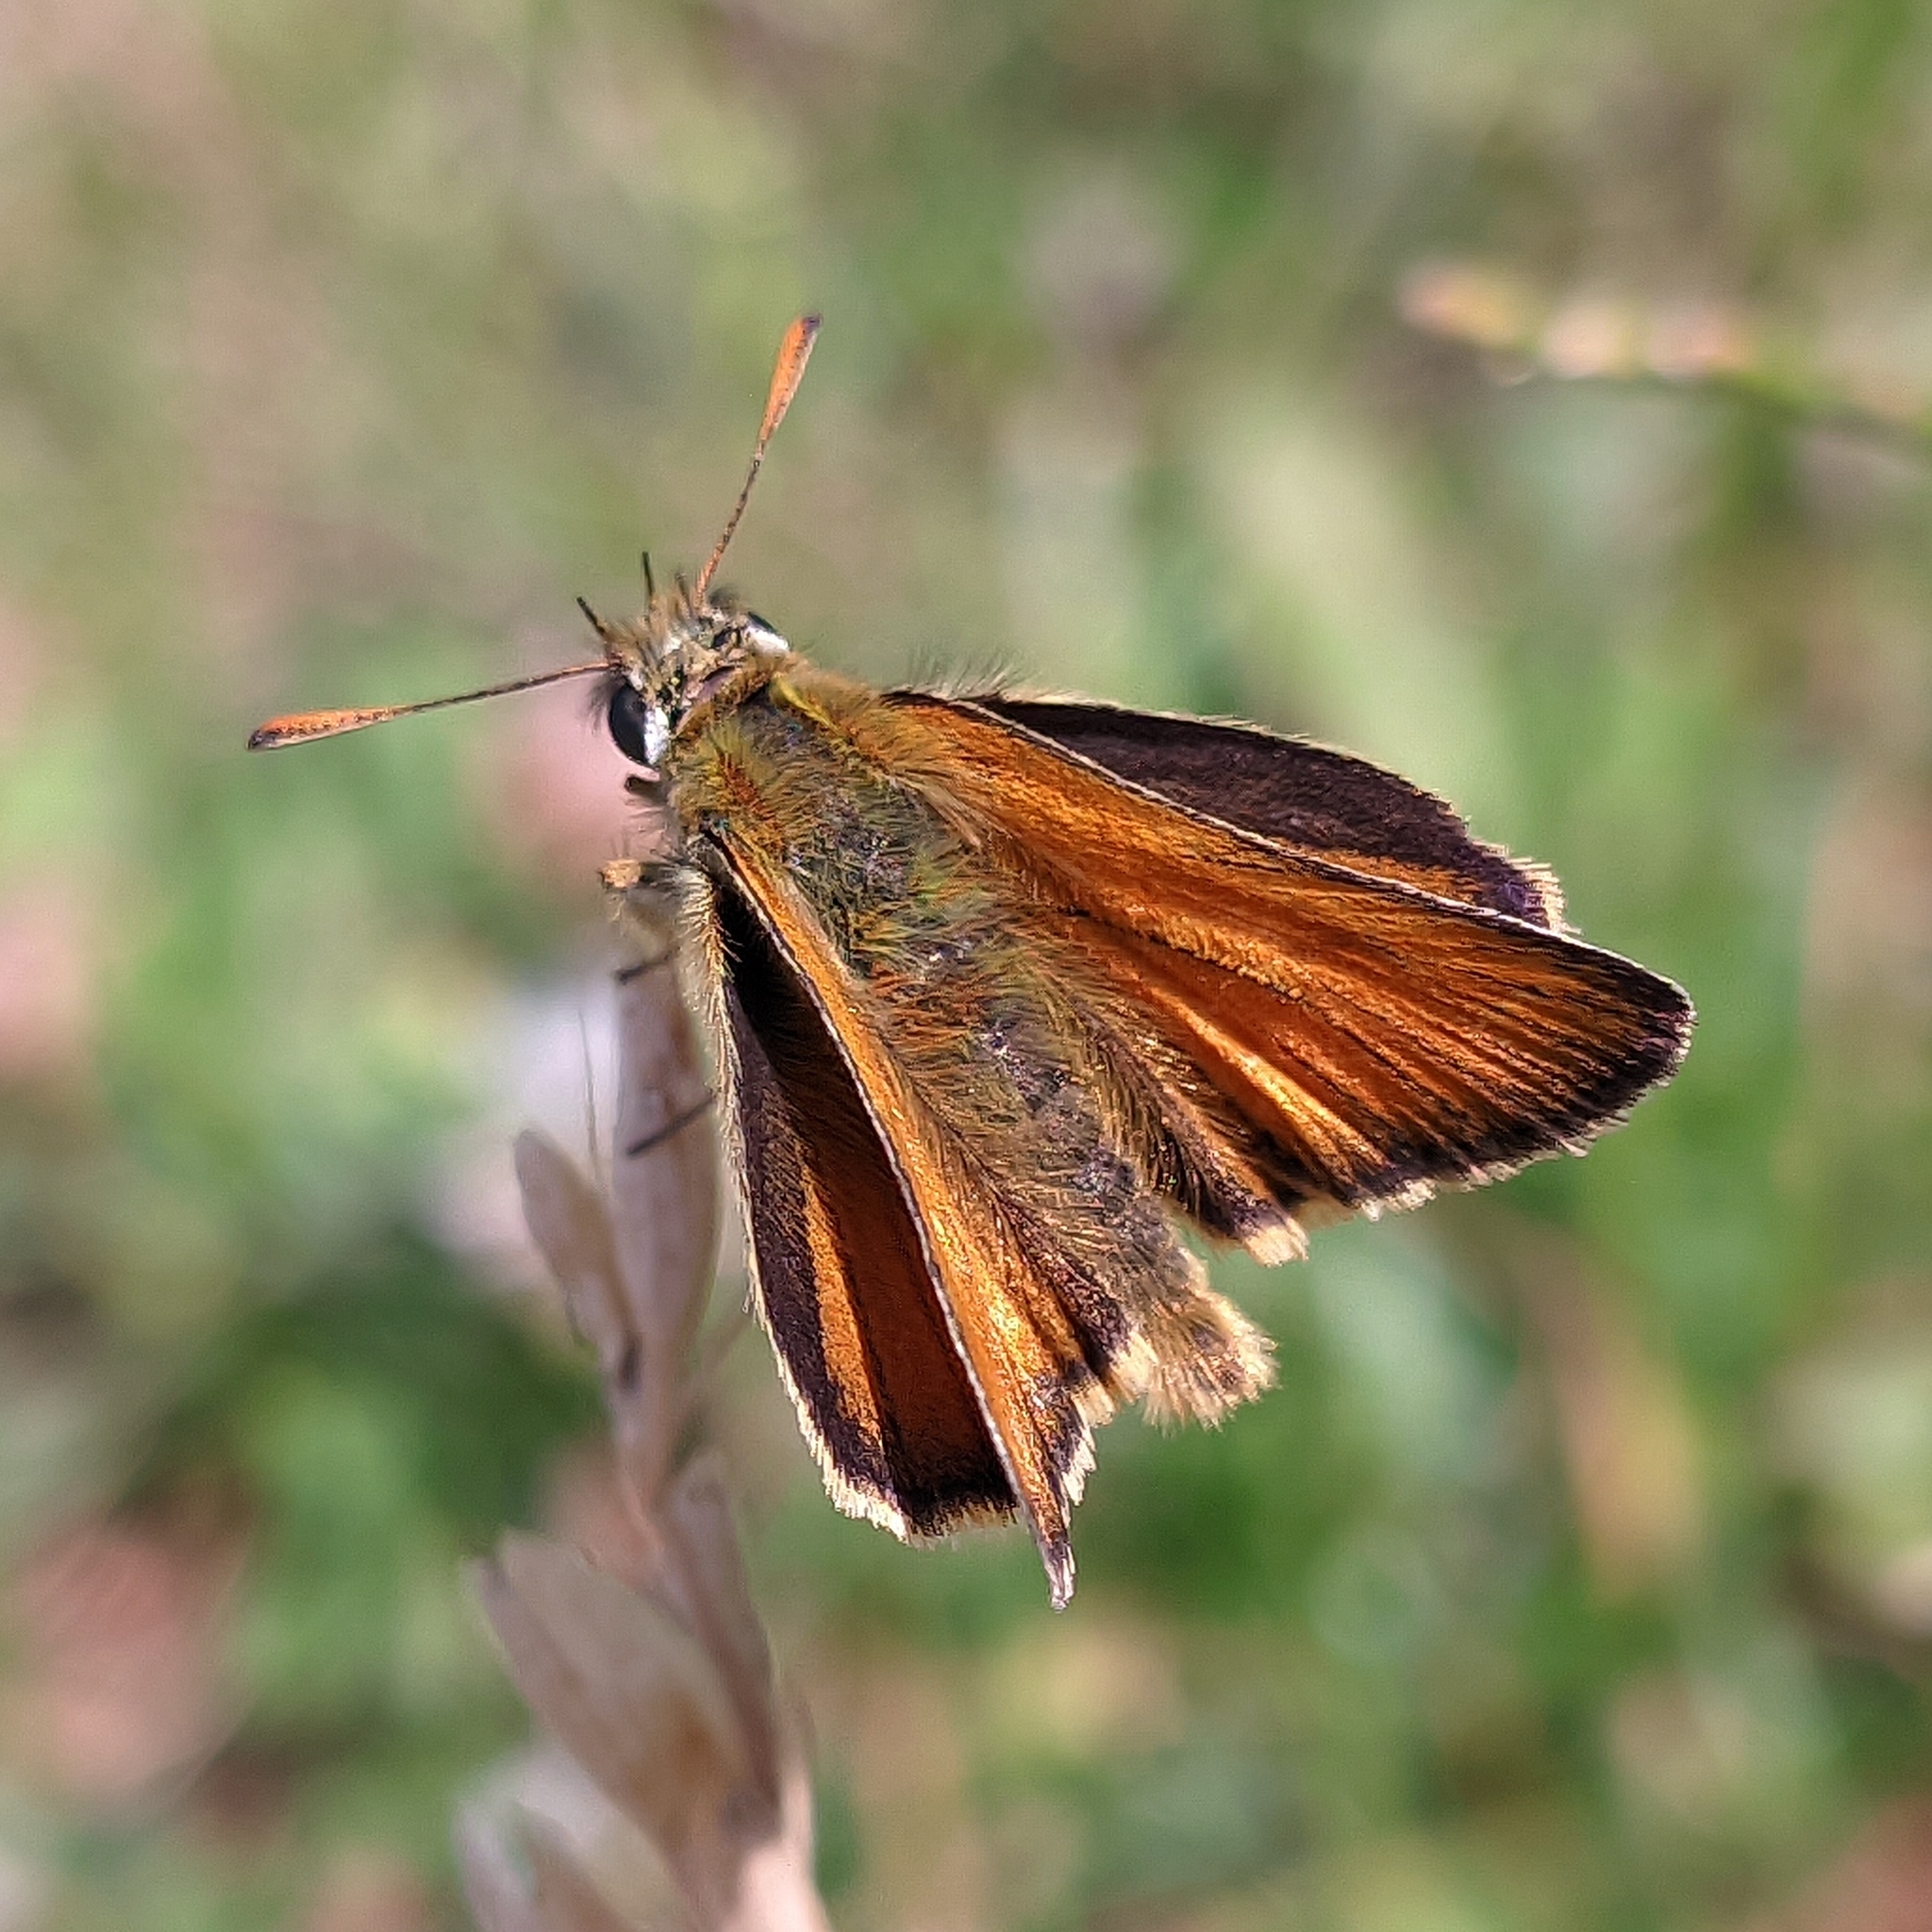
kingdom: Animalia
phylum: Arthropoda
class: Insecta
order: Lepidoptera
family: Hesperiidae
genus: Thymelicus
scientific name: Thymelicus sylvestris
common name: Small skipper
